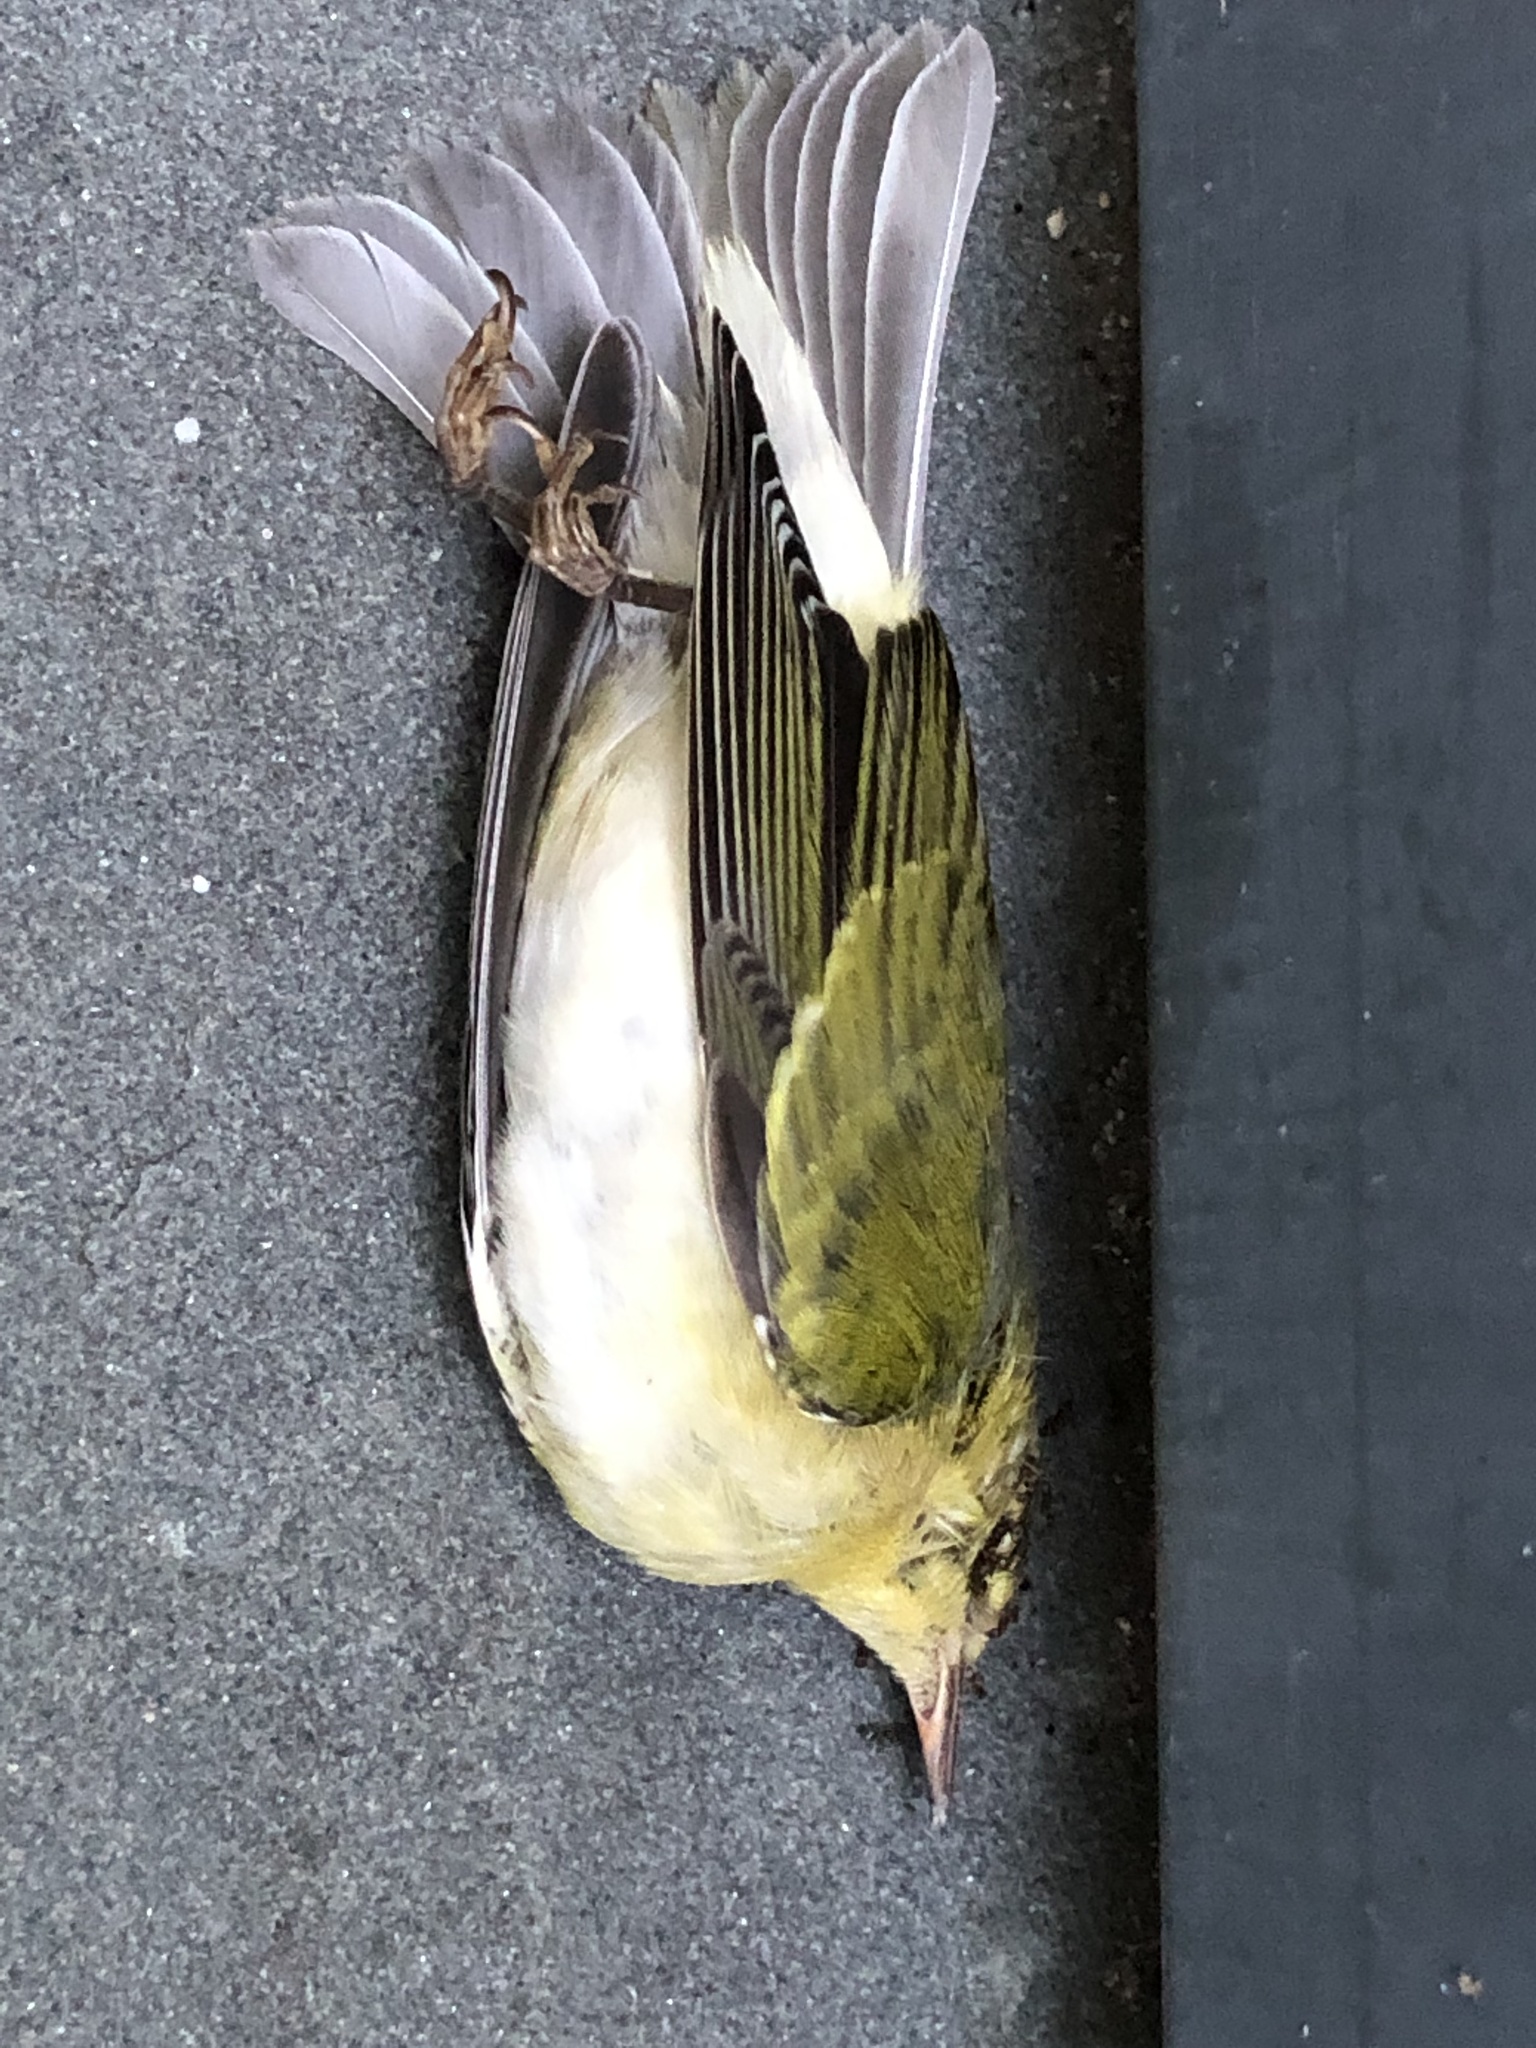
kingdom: Animalia
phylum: Chordata
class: Aves
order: Passeriformes
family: Parulidae
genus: Leiothlypis
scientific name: Leiothlypis peregrina
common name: Tennessee warbler
